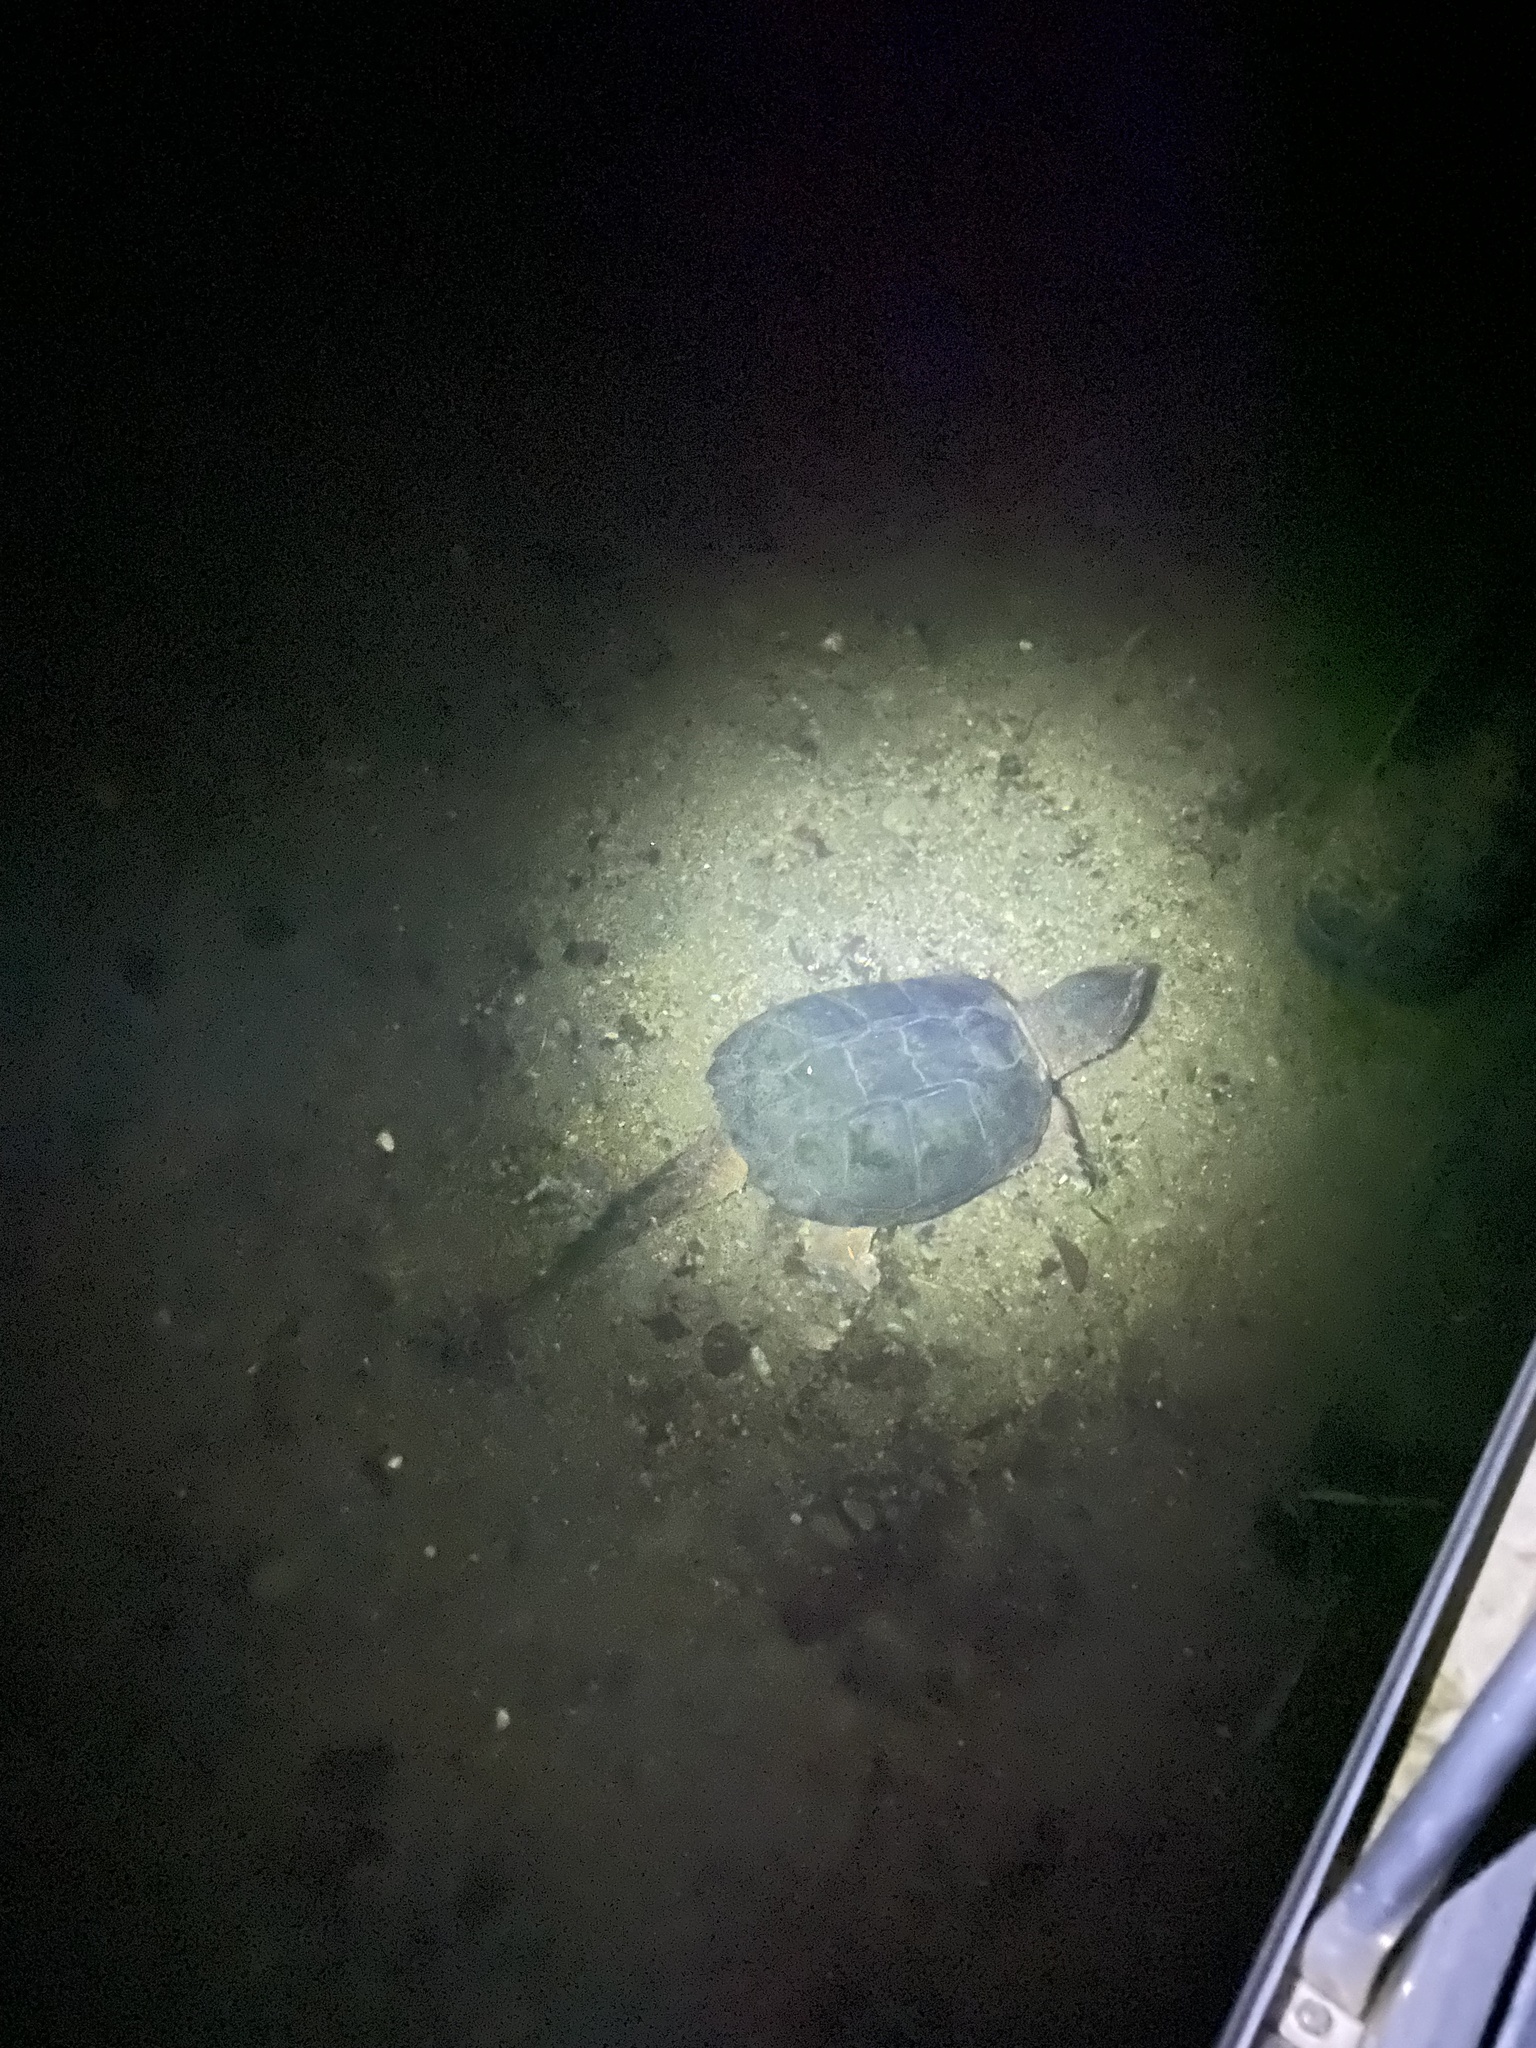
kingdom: Animalia
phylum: Chordata
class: Testudines
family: Chelydridae
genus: Chelydra
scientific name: Chelydra serpentina
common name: Common snapping turtle
